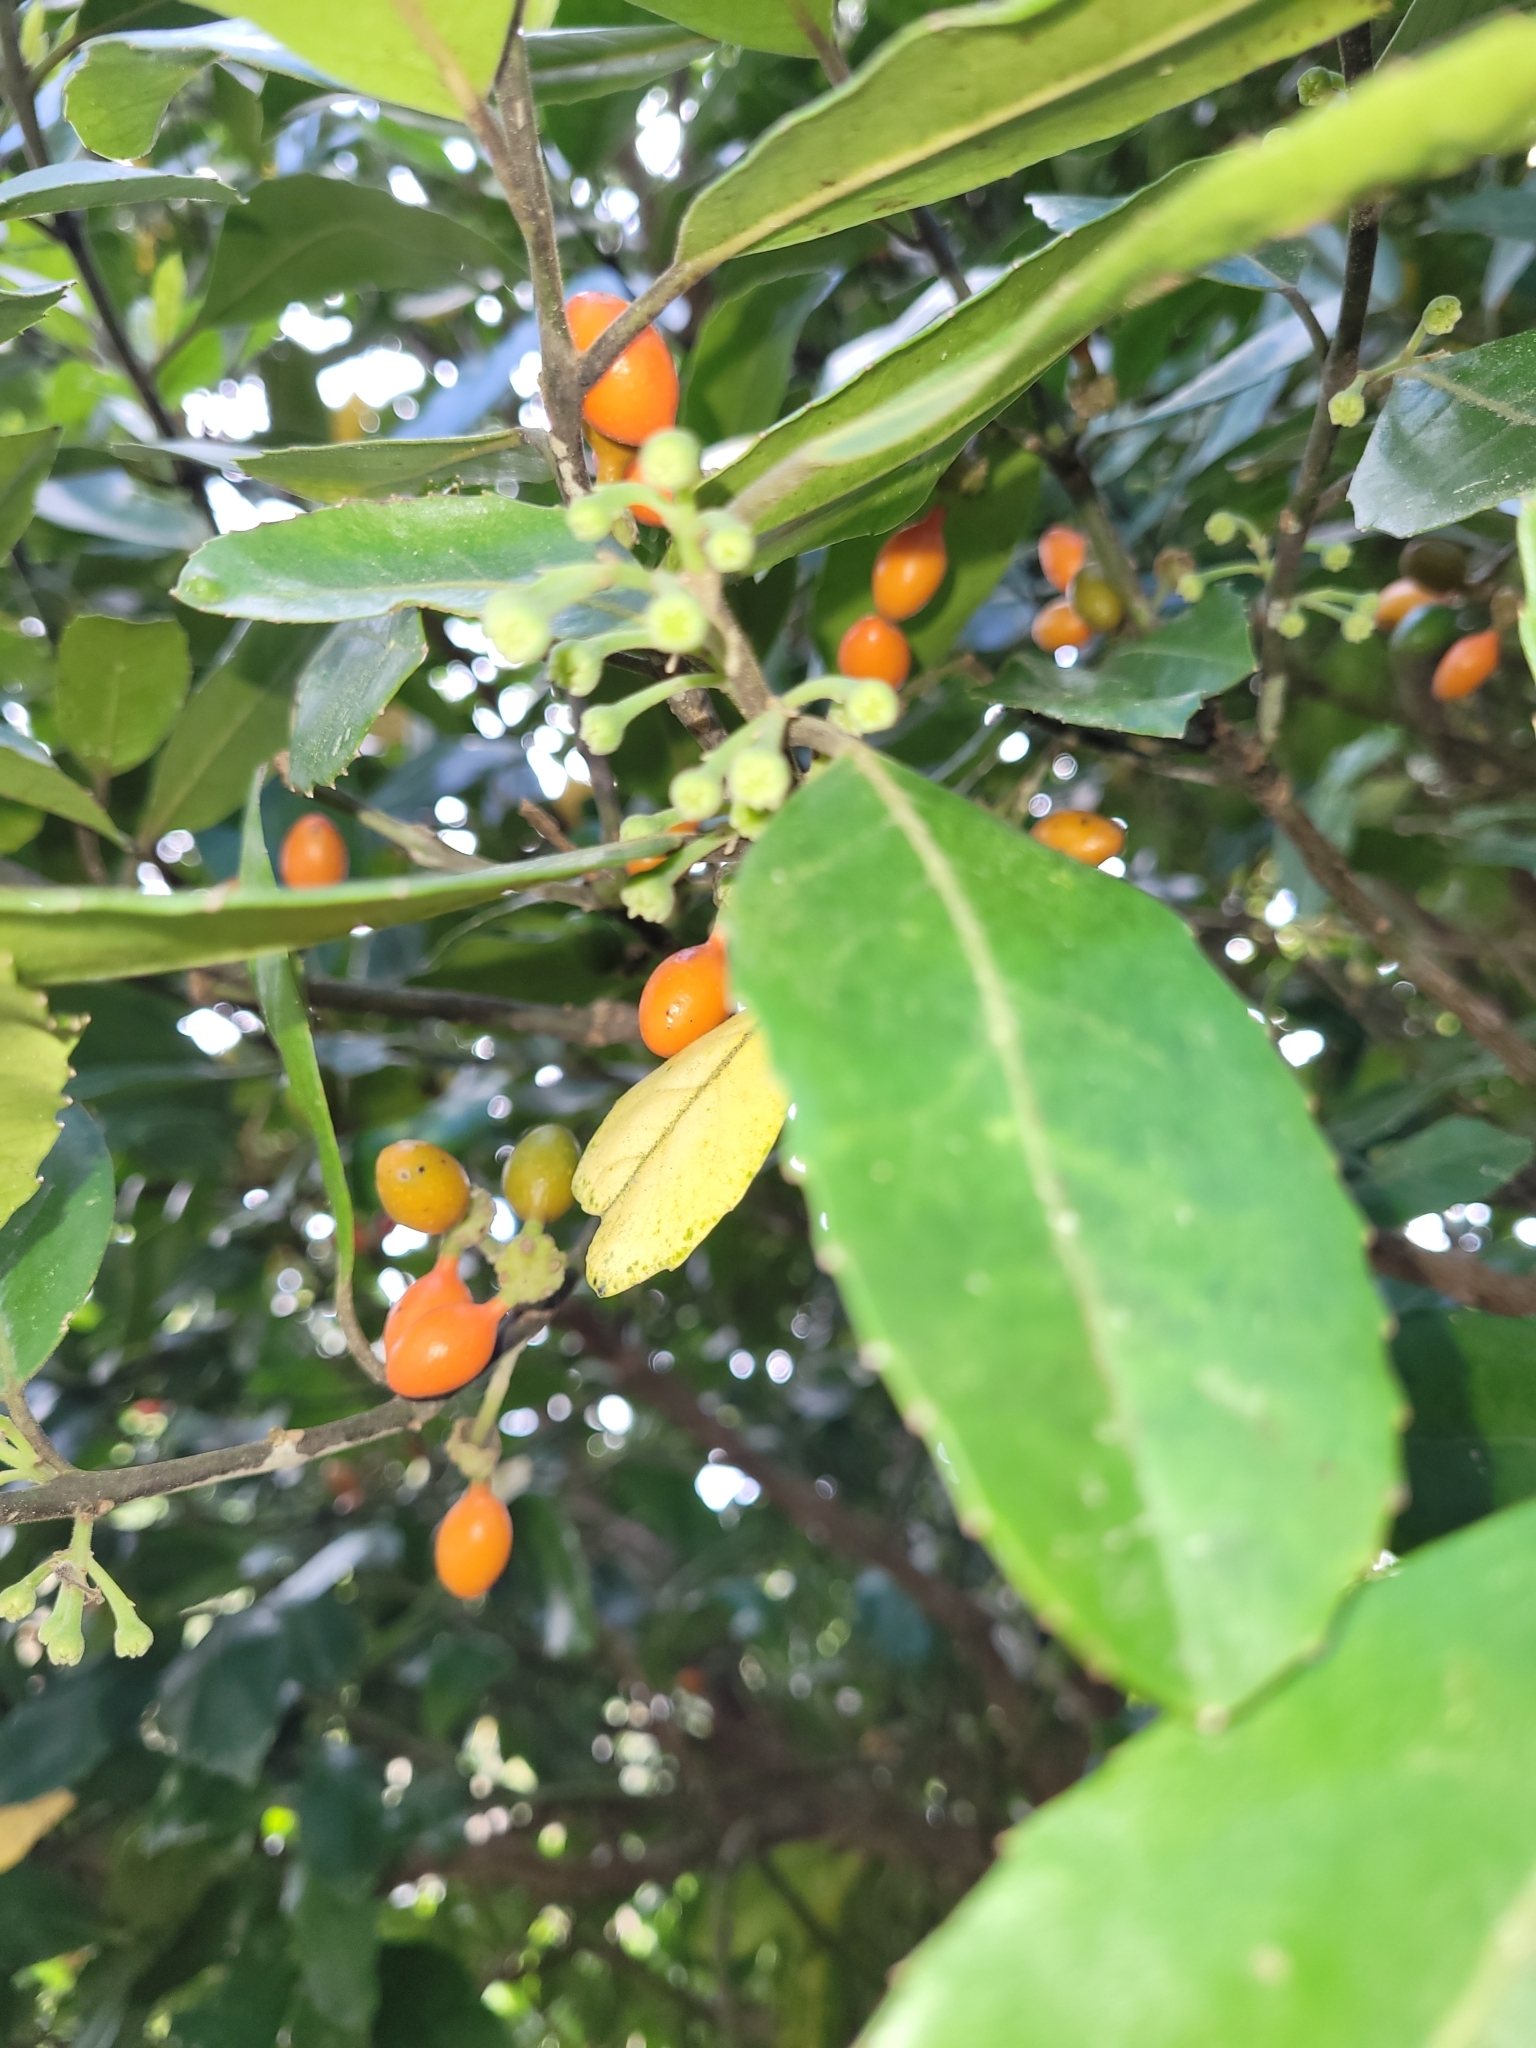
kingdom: Plantae
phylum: Tracheophyta
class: Magnoliopsida
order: Laurales
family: Monimiaceae
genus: Hedycarya
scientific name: Hedycarya arborea
